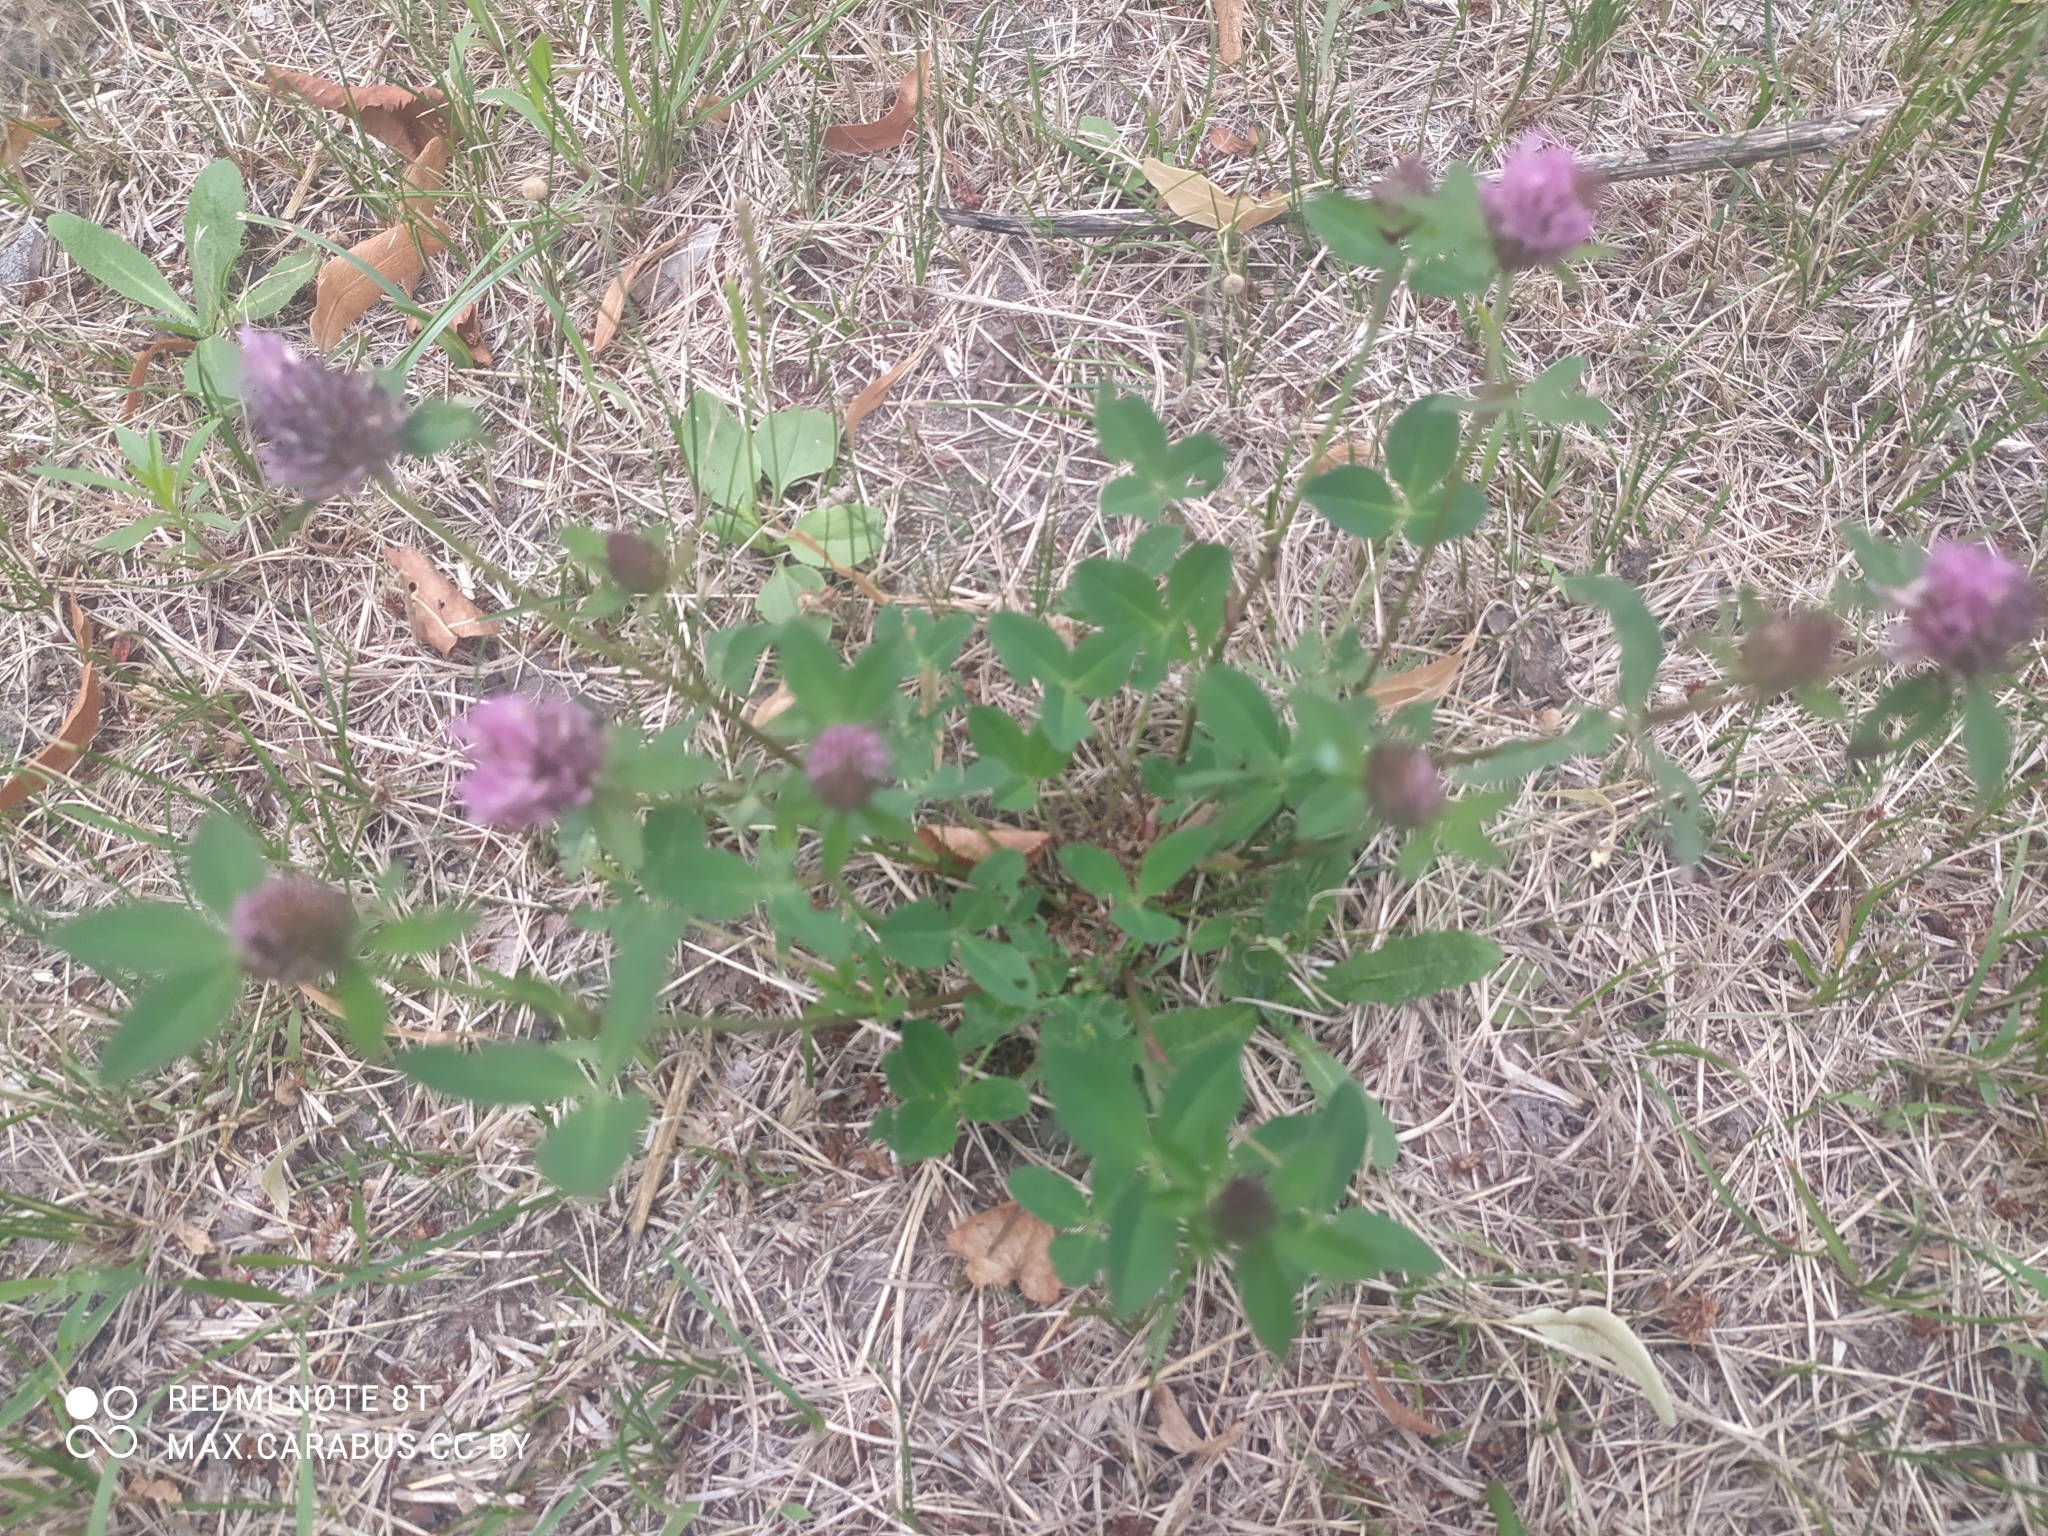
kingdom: Plantae
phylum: Tracheophyta
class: Magnoliopsida
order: Fabales
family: Fabaceae
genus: Trifolium
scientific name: Trifolium pratense
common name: Red clover
